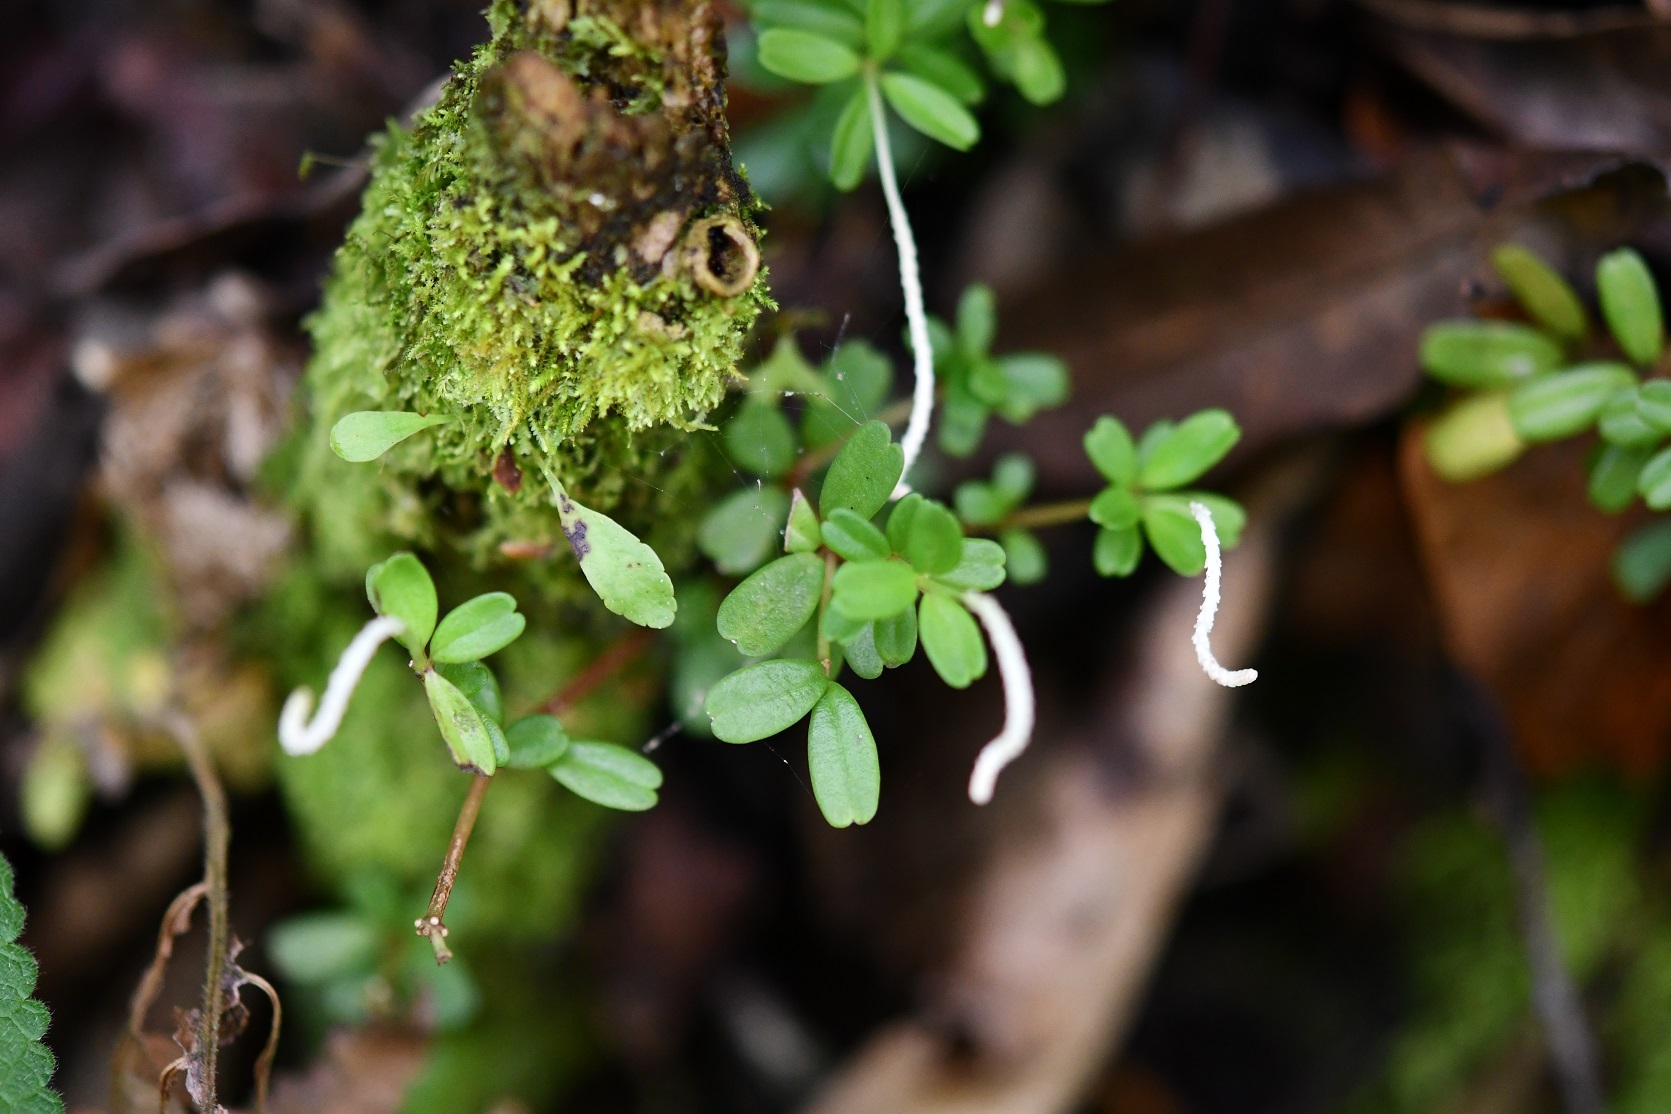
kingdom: Plantae
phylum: Tracheophyta
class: Magnoliopsida
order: Piperales
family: Piperaceae
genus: Peperomia
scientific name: Peperomia quadrifolia
